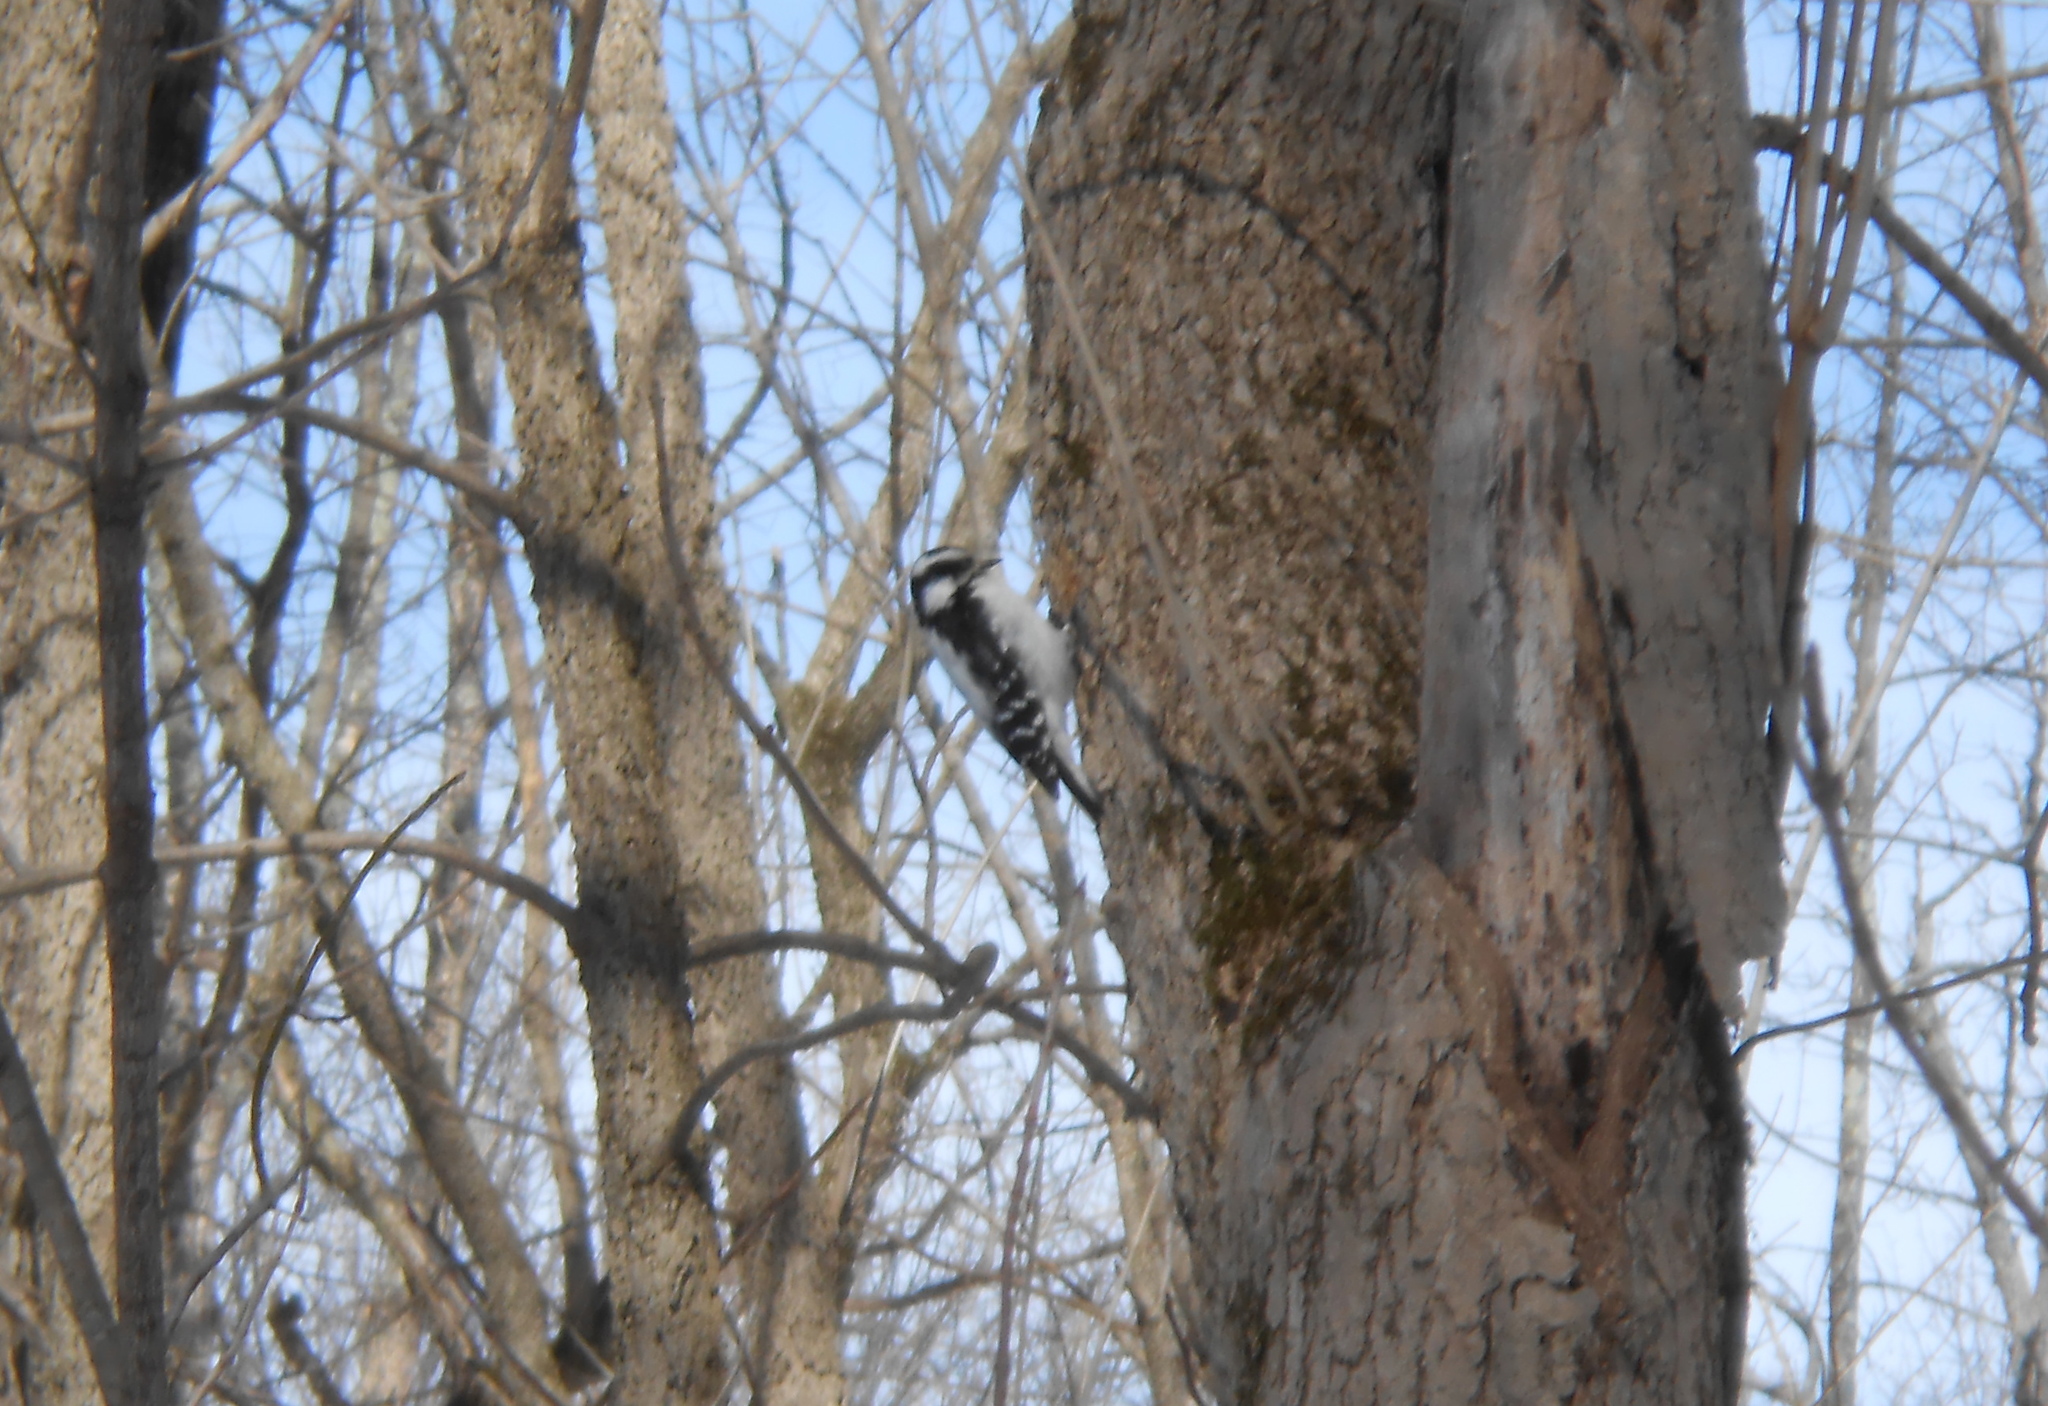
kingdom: Animalia
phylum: Chordata
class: Aves
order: Piciformes
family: Picidae
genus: Dryobates
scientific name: Dryobates pubescens
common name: Downy woodpecker
